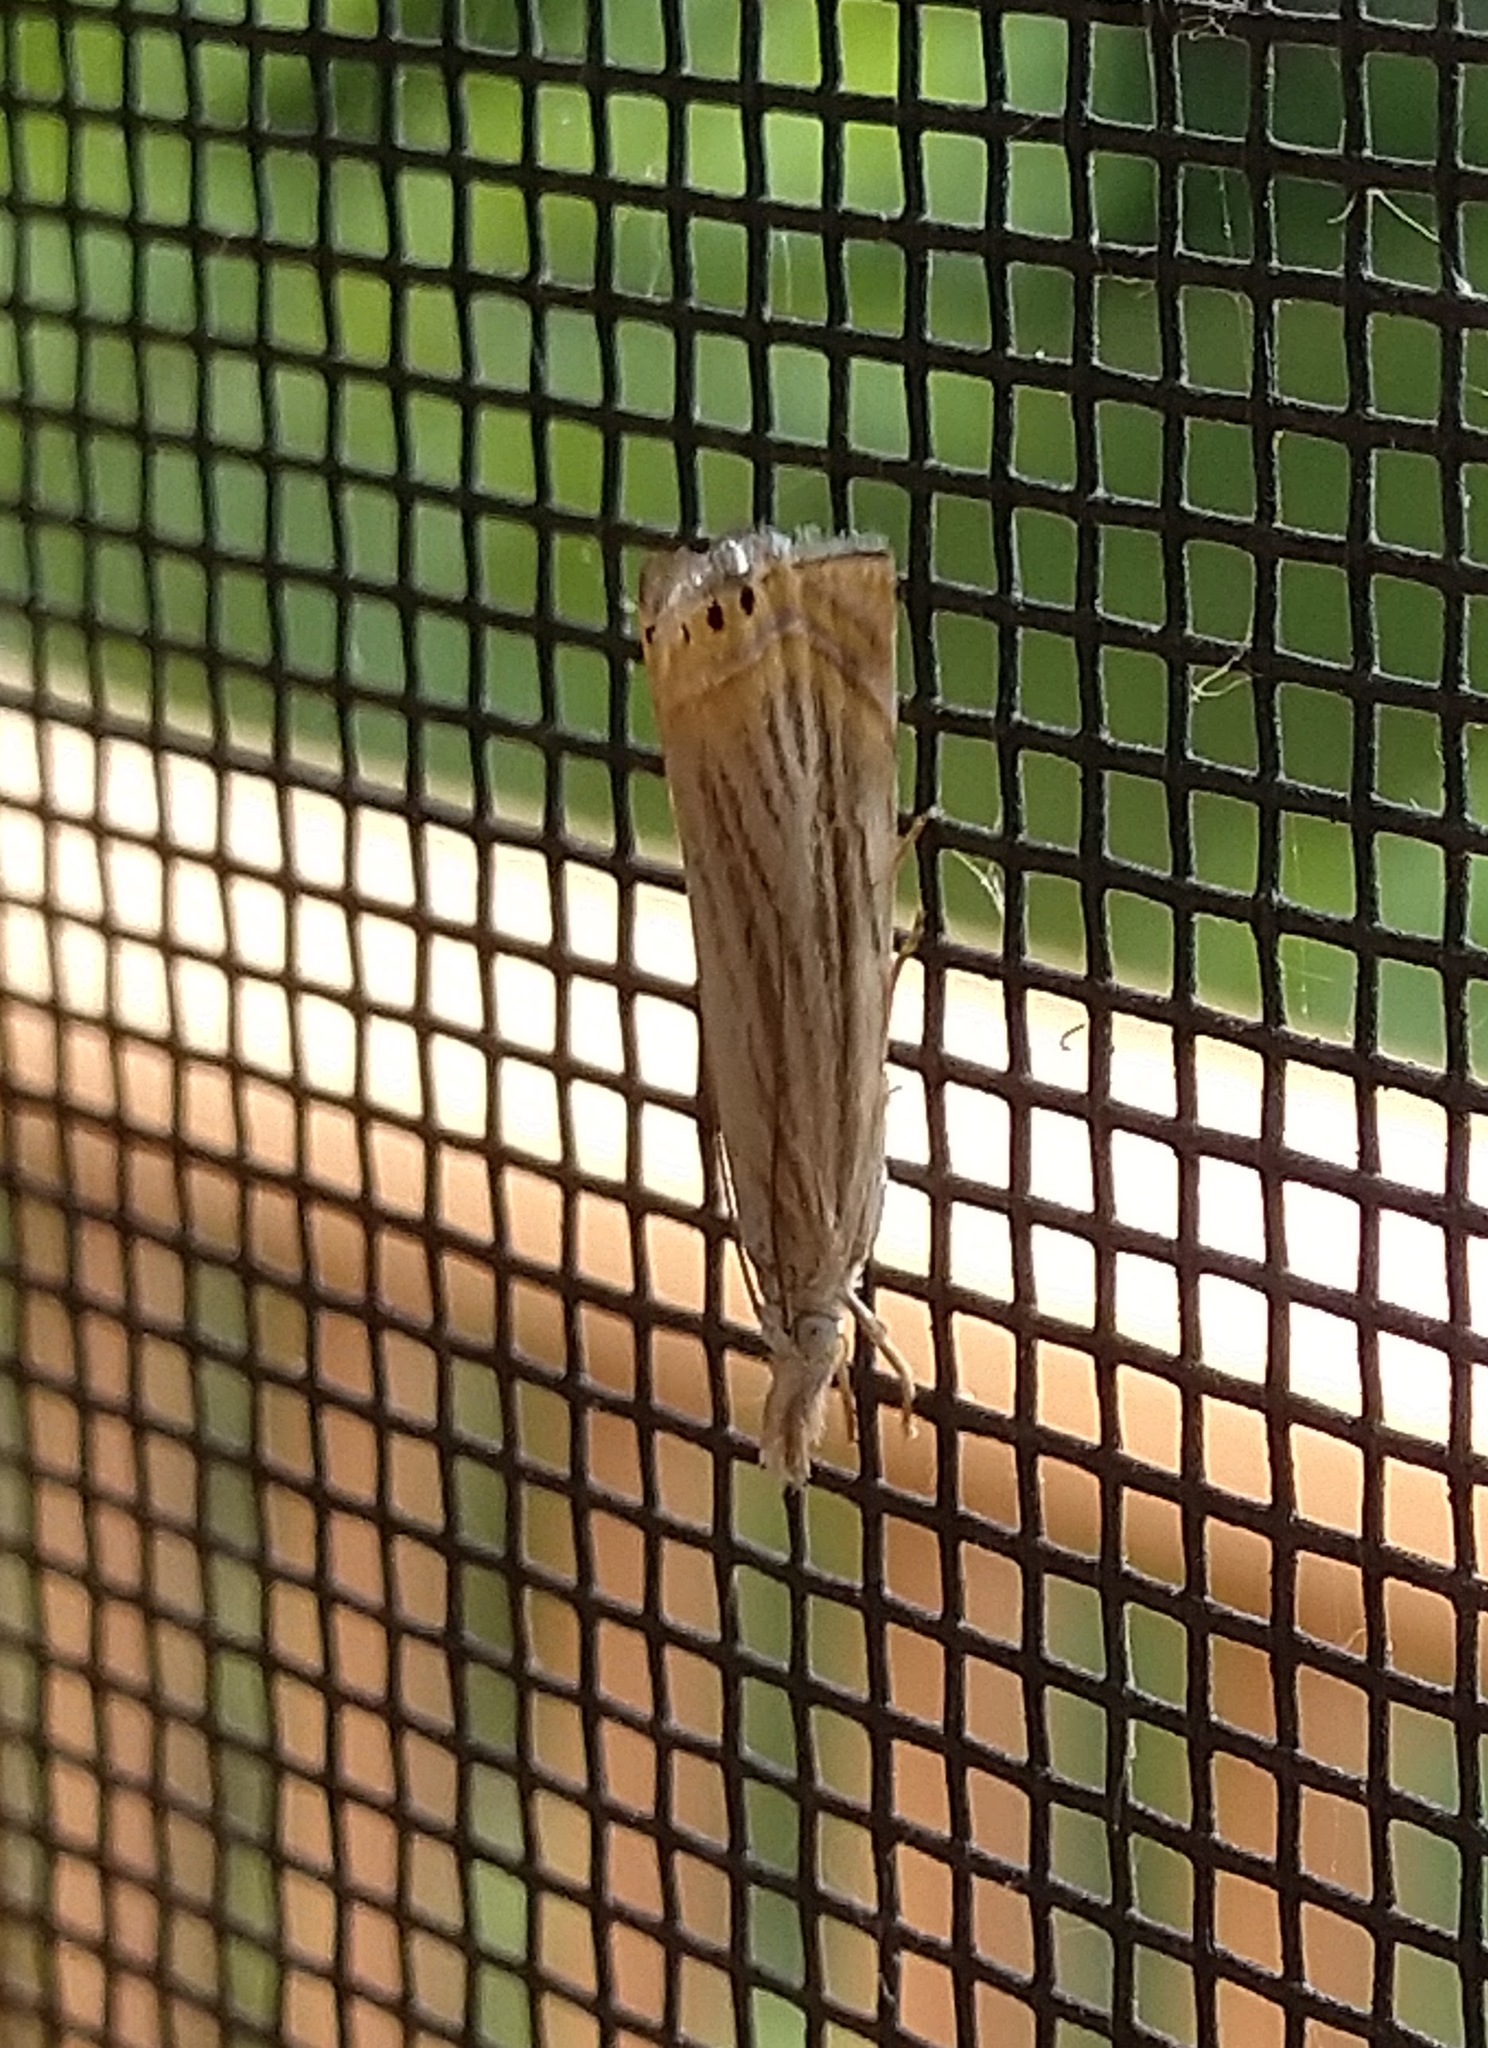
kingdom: Animalia
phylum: Arthropoda
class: Insecta
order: Lepidoptera
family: Crambidae
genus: Chrysoteuchia
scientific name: Chrysoteuchia topiarius
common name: Topiary grass-veneer
